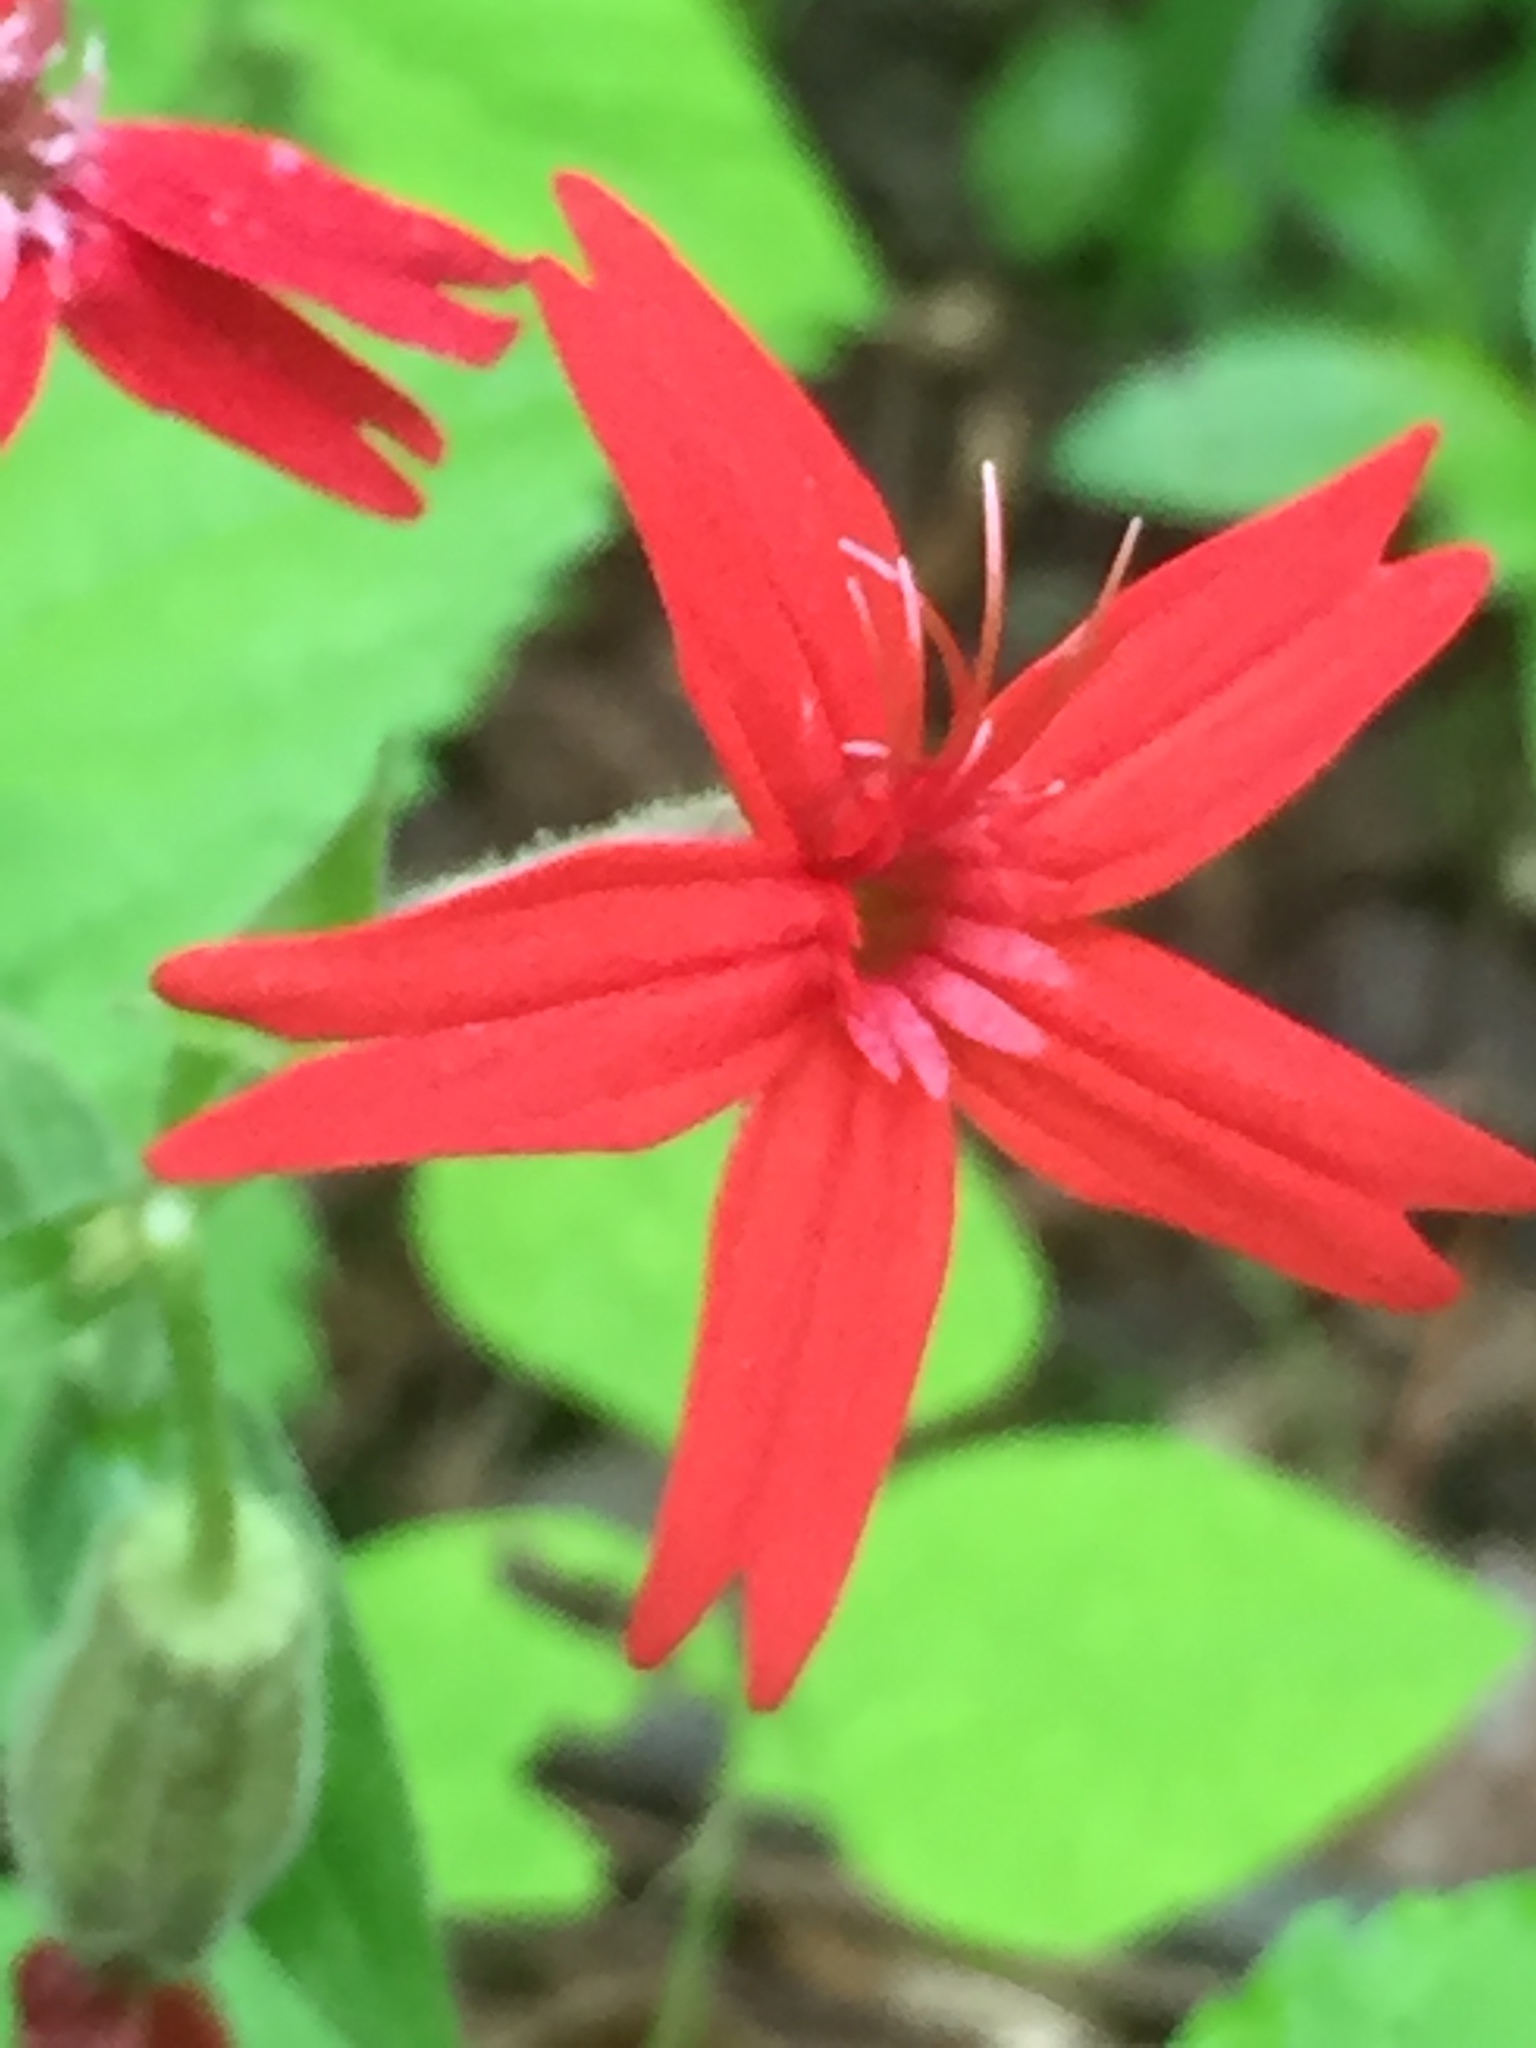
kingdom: Plantae
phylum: Tracheophyta
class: Magnoliopsida
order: Caryophyllales
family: Caryophyllaceae
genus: Silene
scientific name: Silene virginica
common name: Fire-pink
